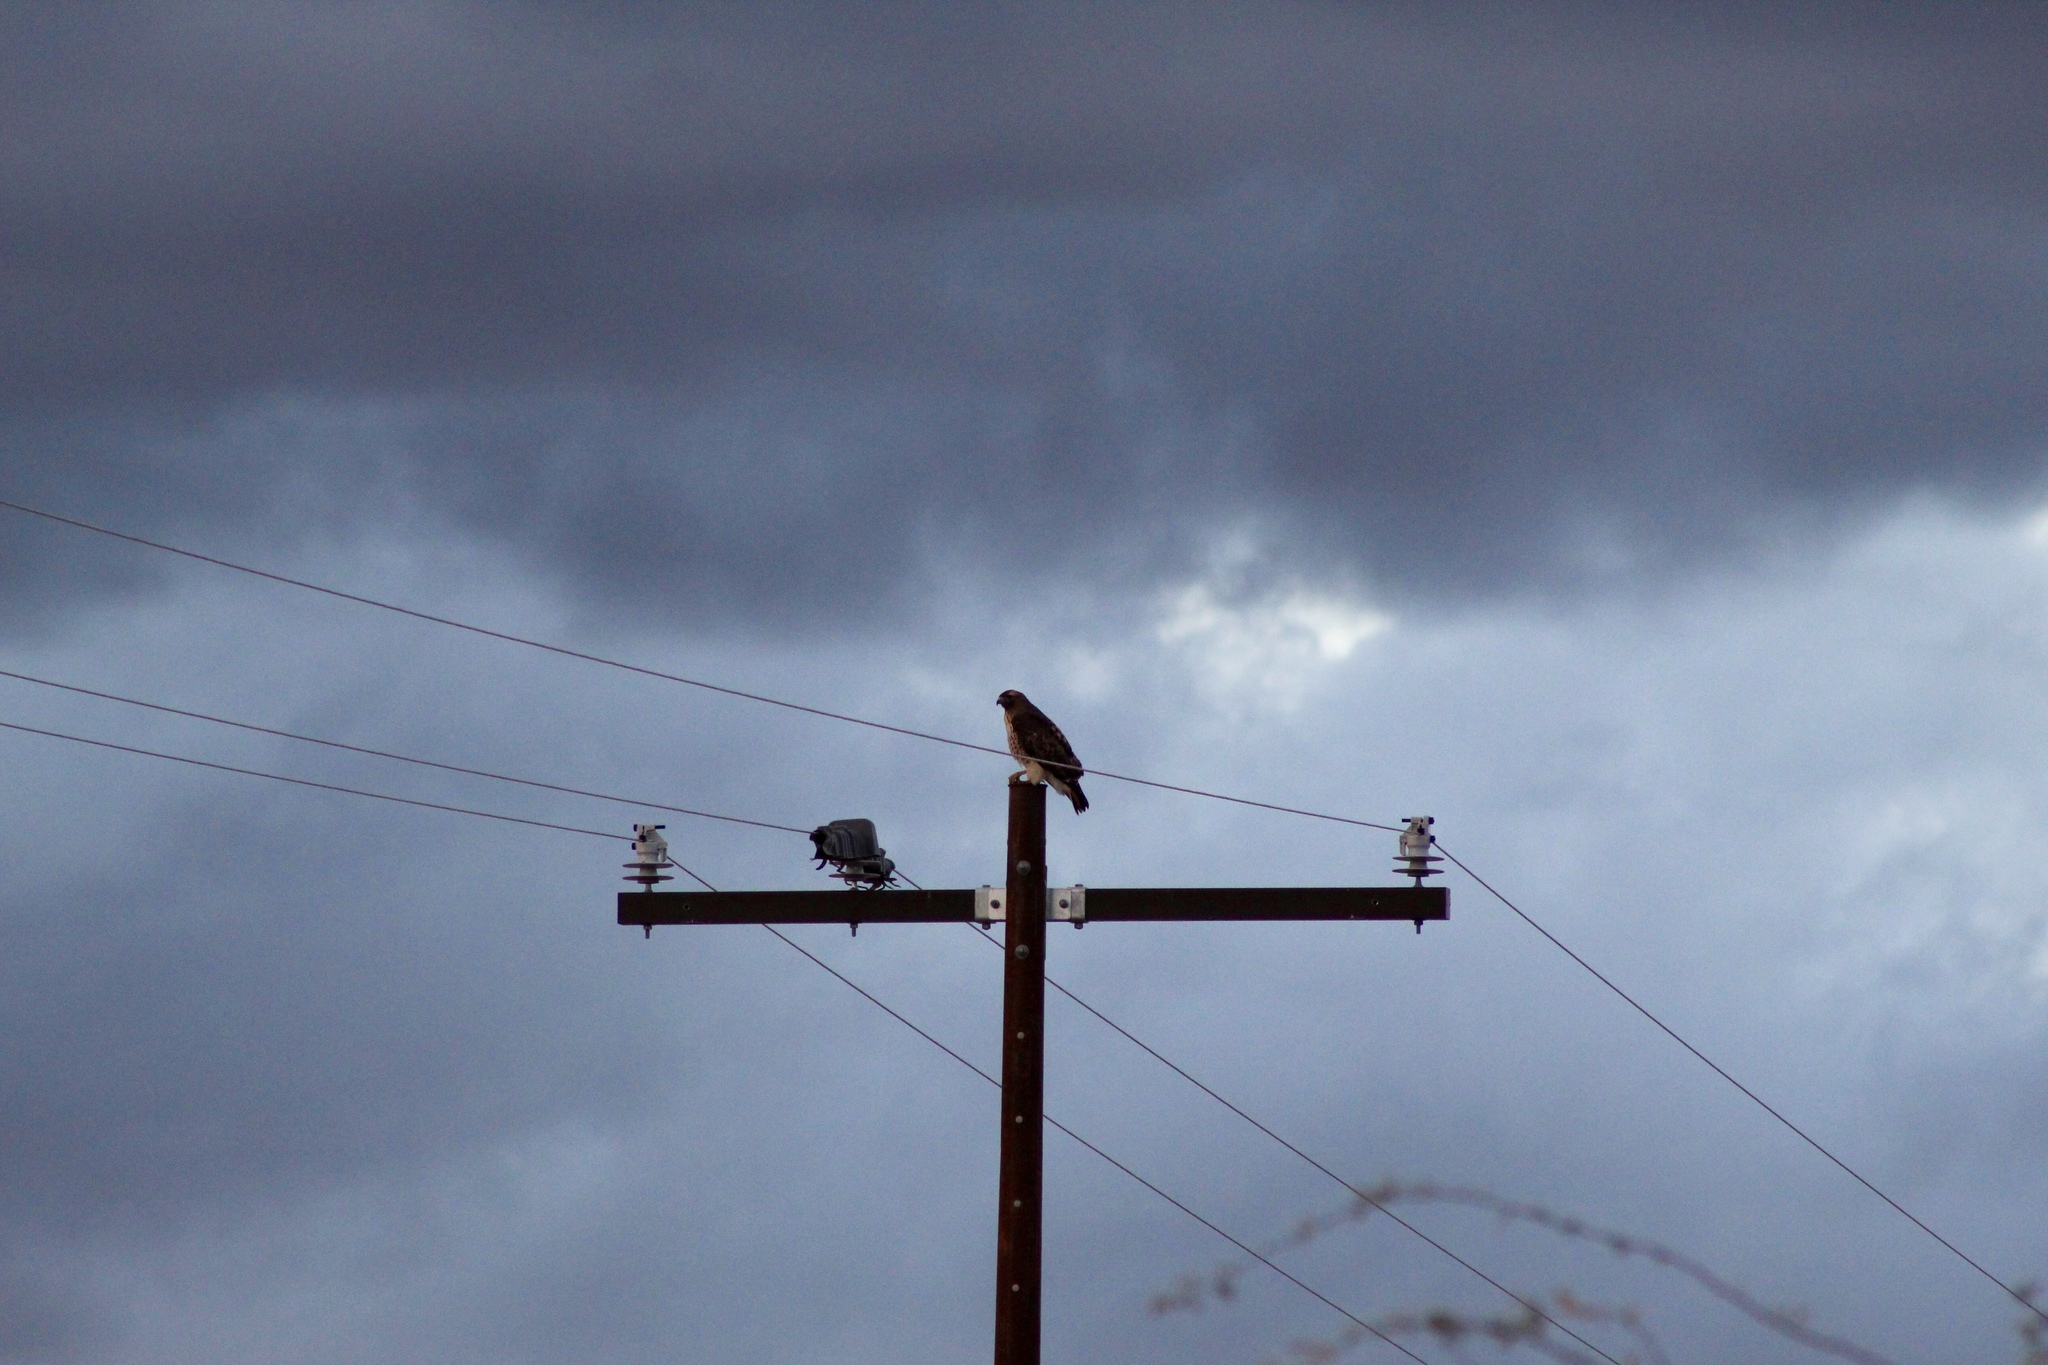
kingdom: Animalia
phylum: Chordata
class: Aves
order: Accipitriformes
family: Accipitridae
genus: Buteo
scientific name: Buteo jamaicensis
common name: Red-tailed hawk
